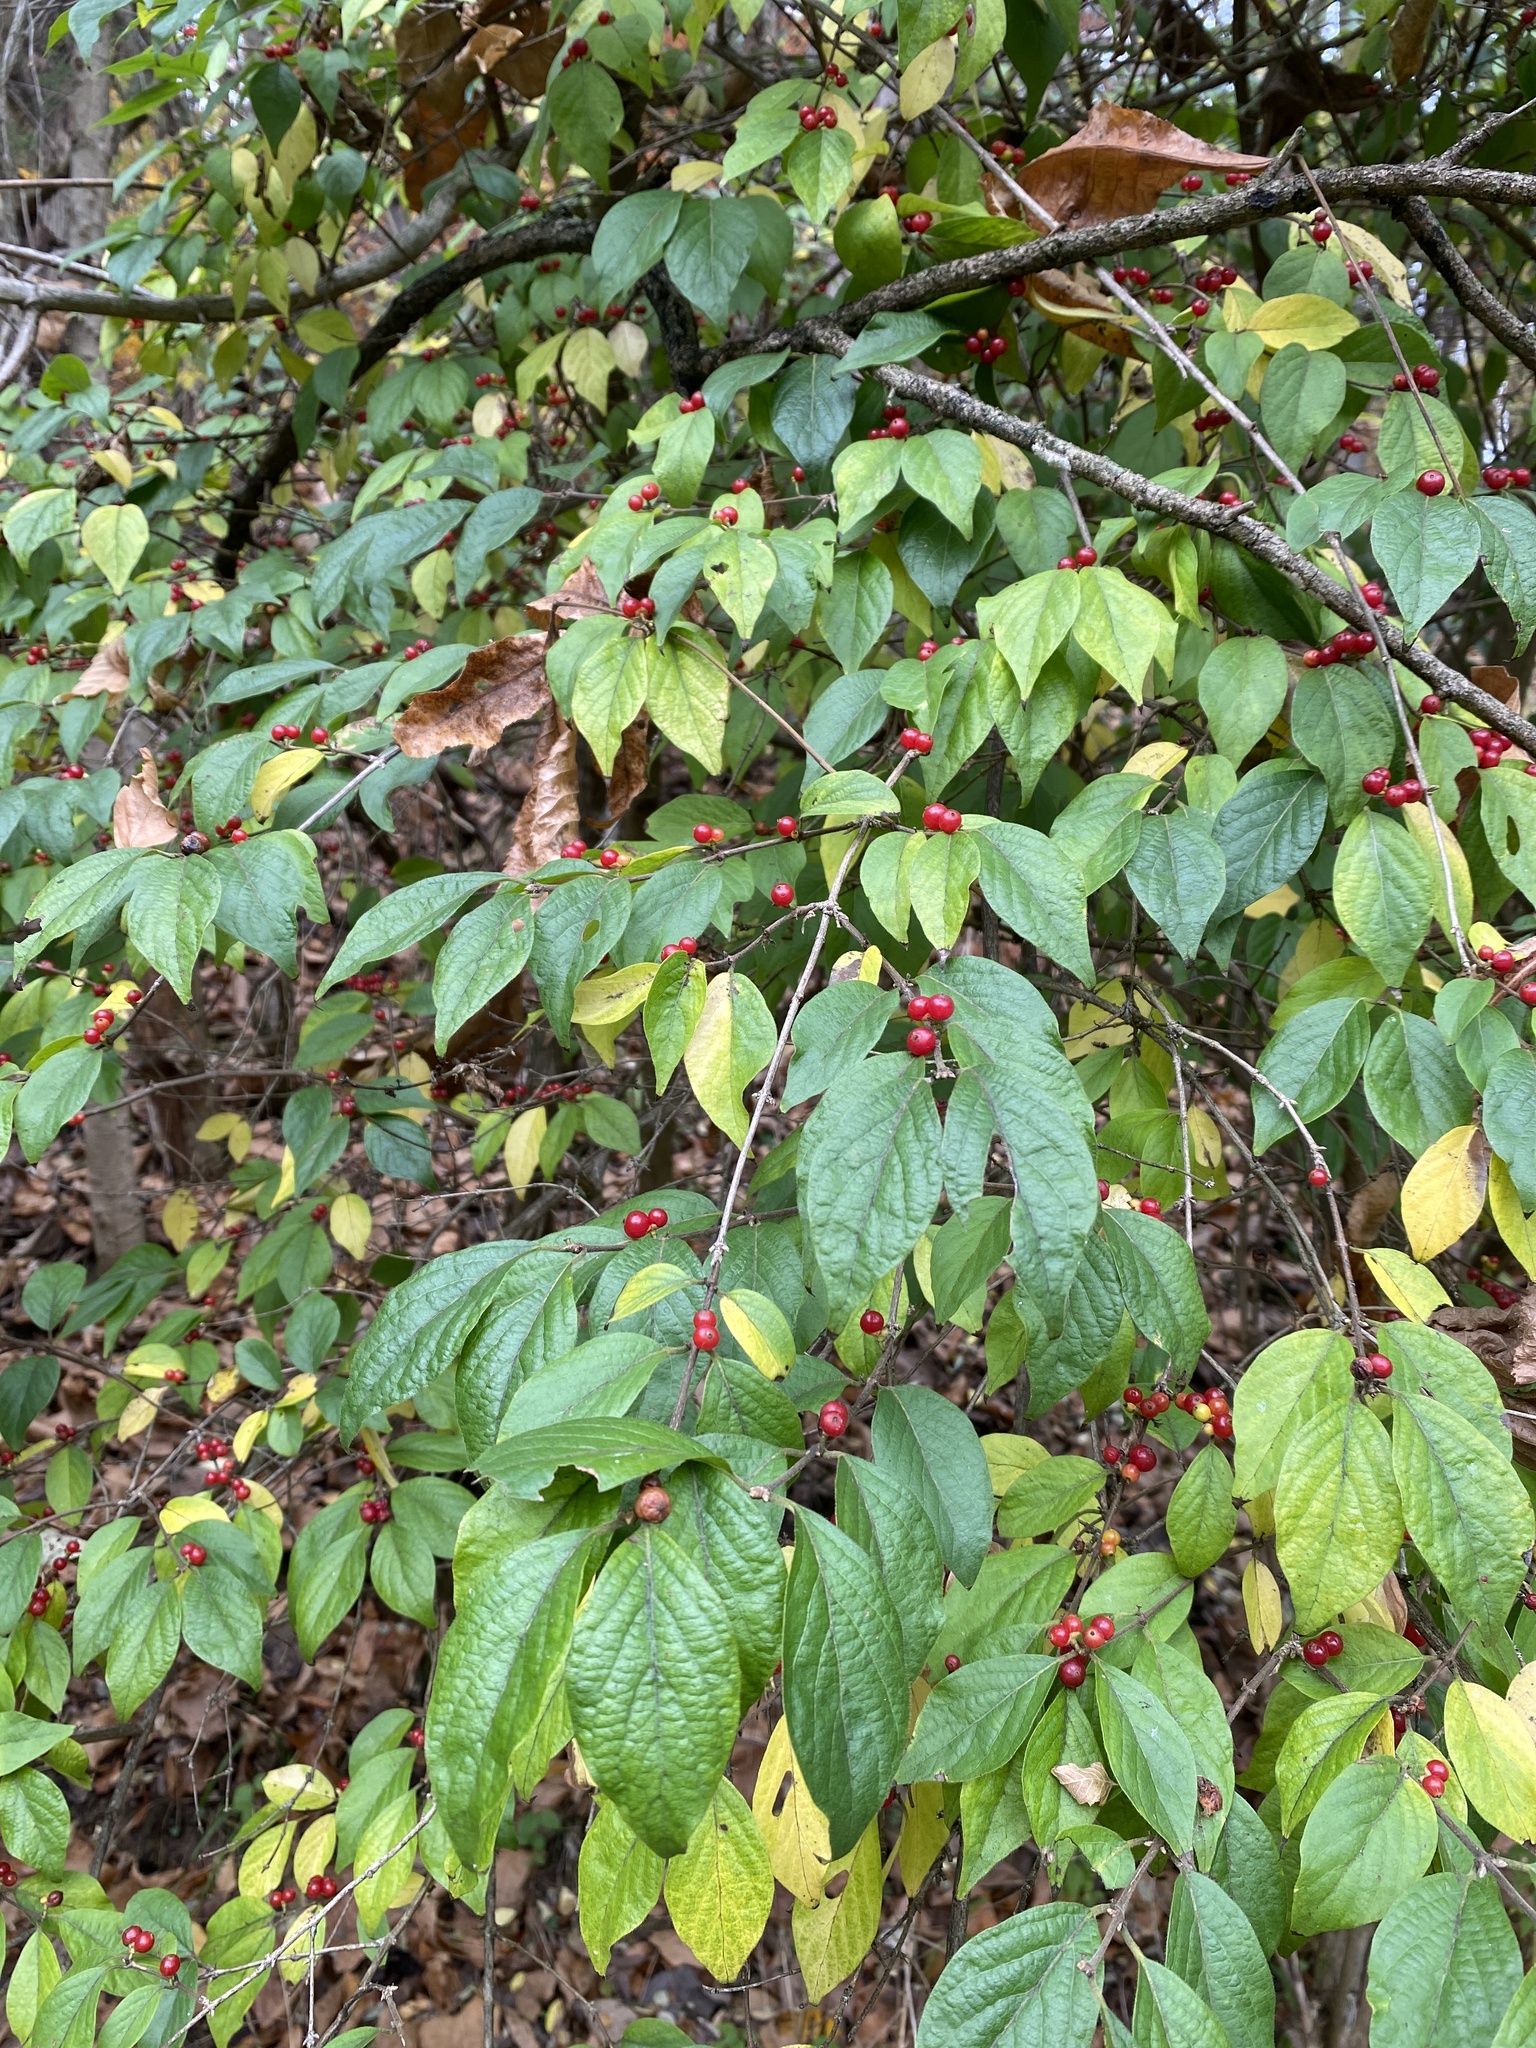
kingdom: Plantae
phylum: Tracheophyta
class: Magnoliopsida
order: Dipsacales
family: Caprifoliaceae
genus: Lonicera
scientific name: Lonicera maackii
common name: Amur honeysuckle
